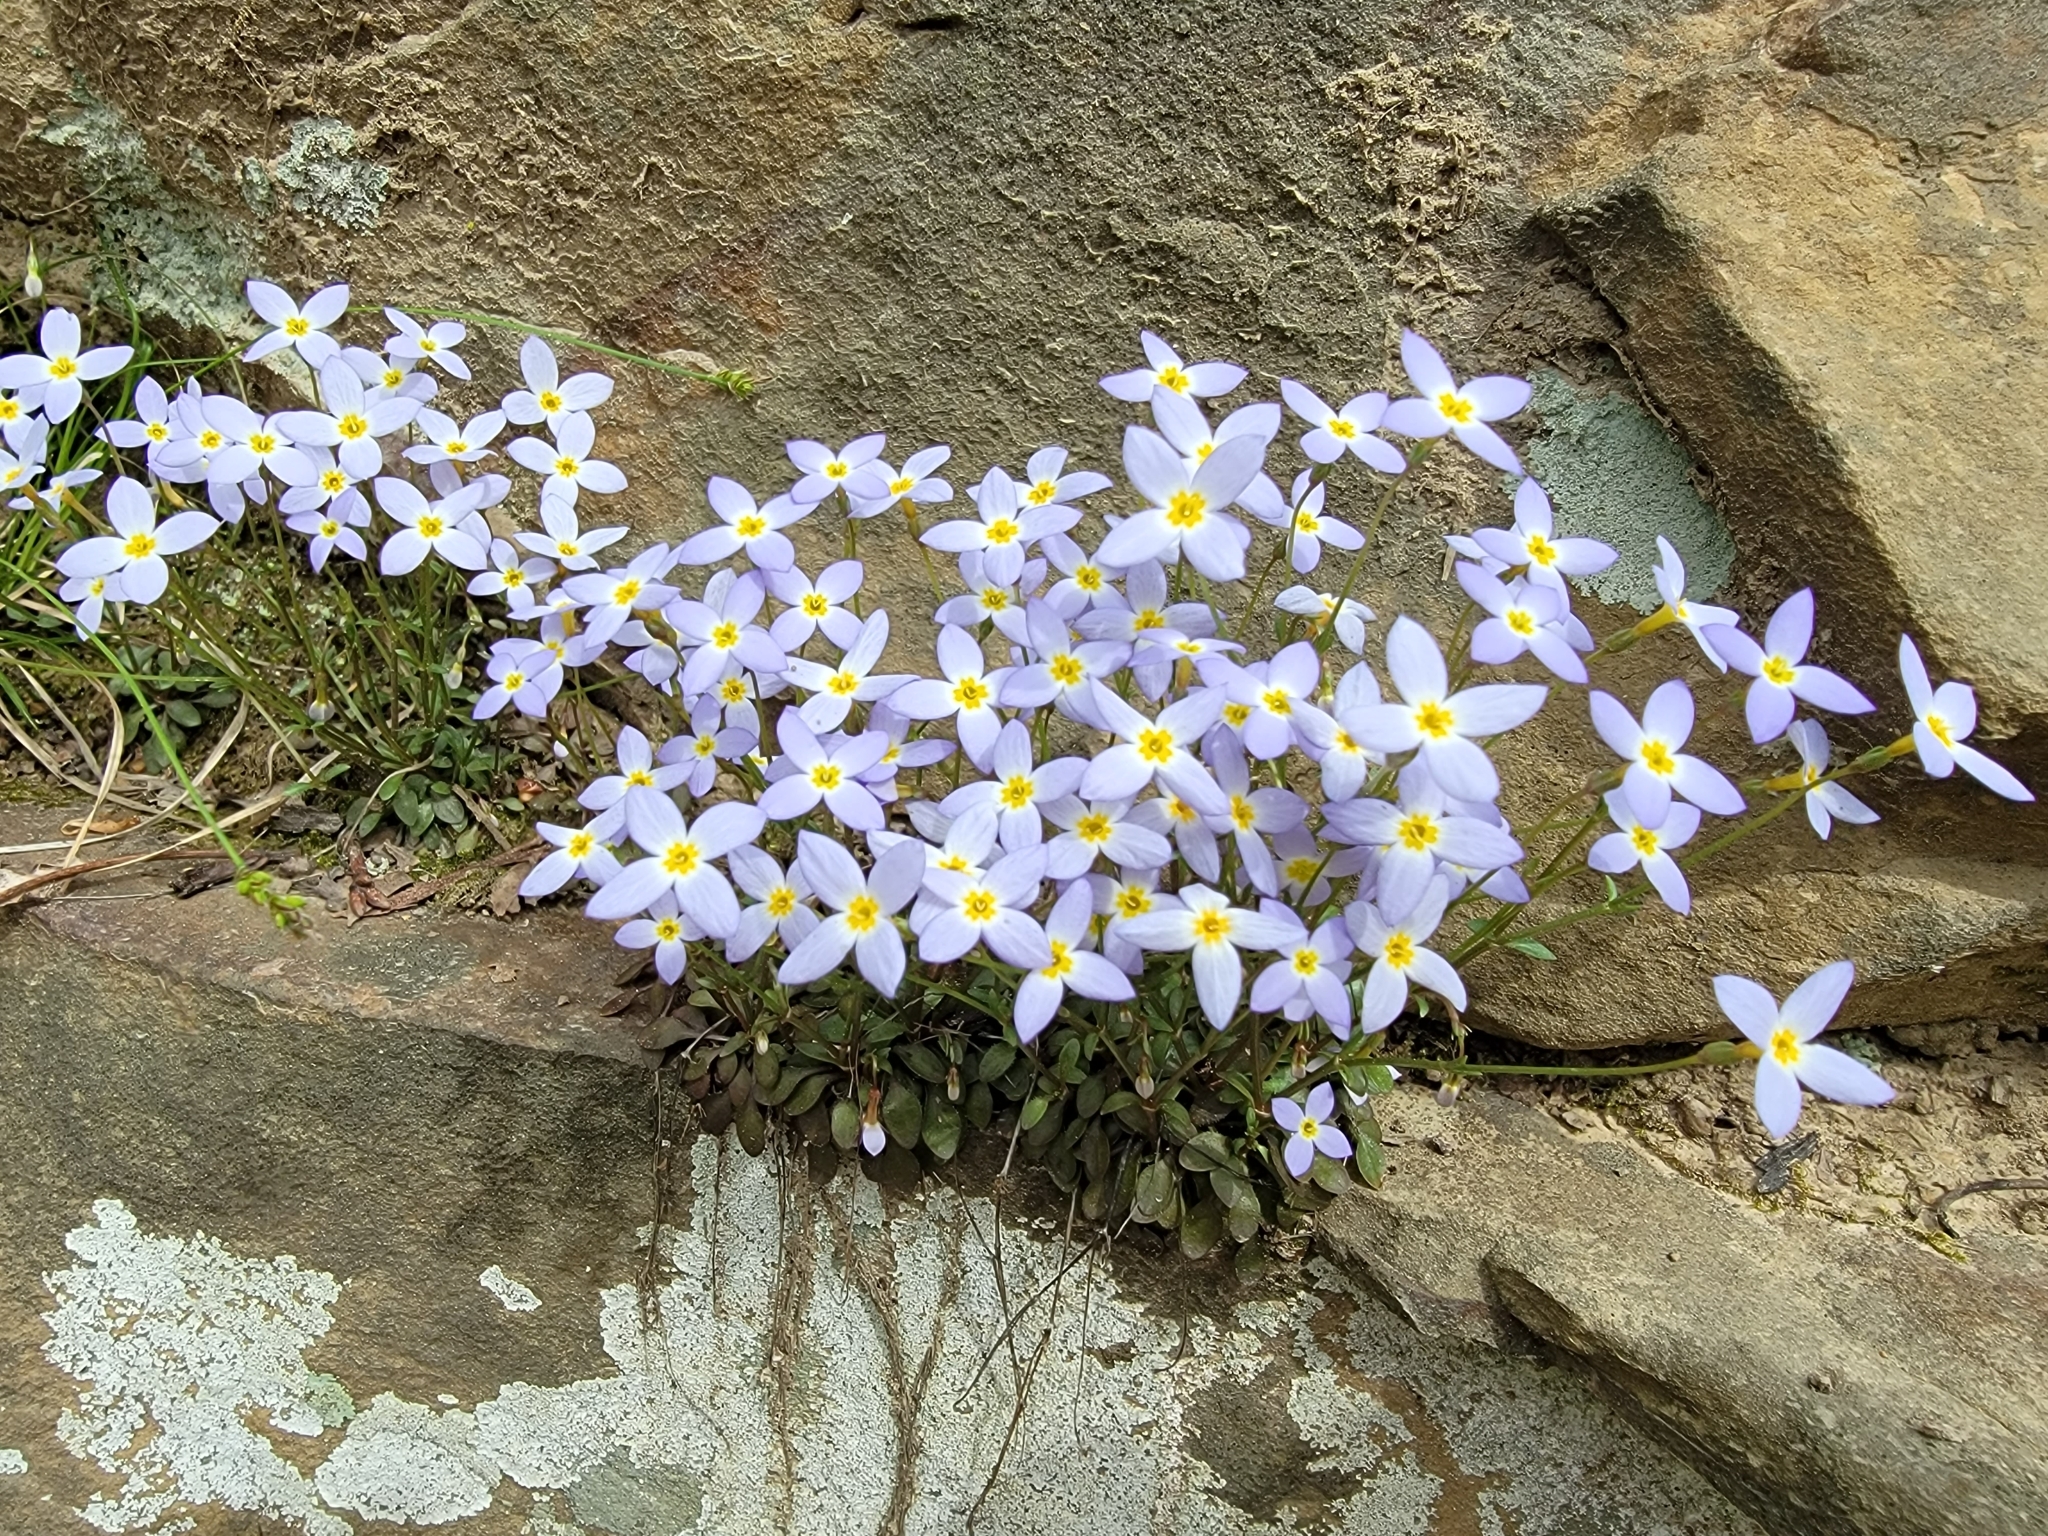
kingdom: Plantae
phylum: Tracheophyta
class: Magnoliopsida
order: Gentianales
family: Rubiaceae
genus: Houstonia
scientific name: Houstonia caerulea
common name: Bluets
